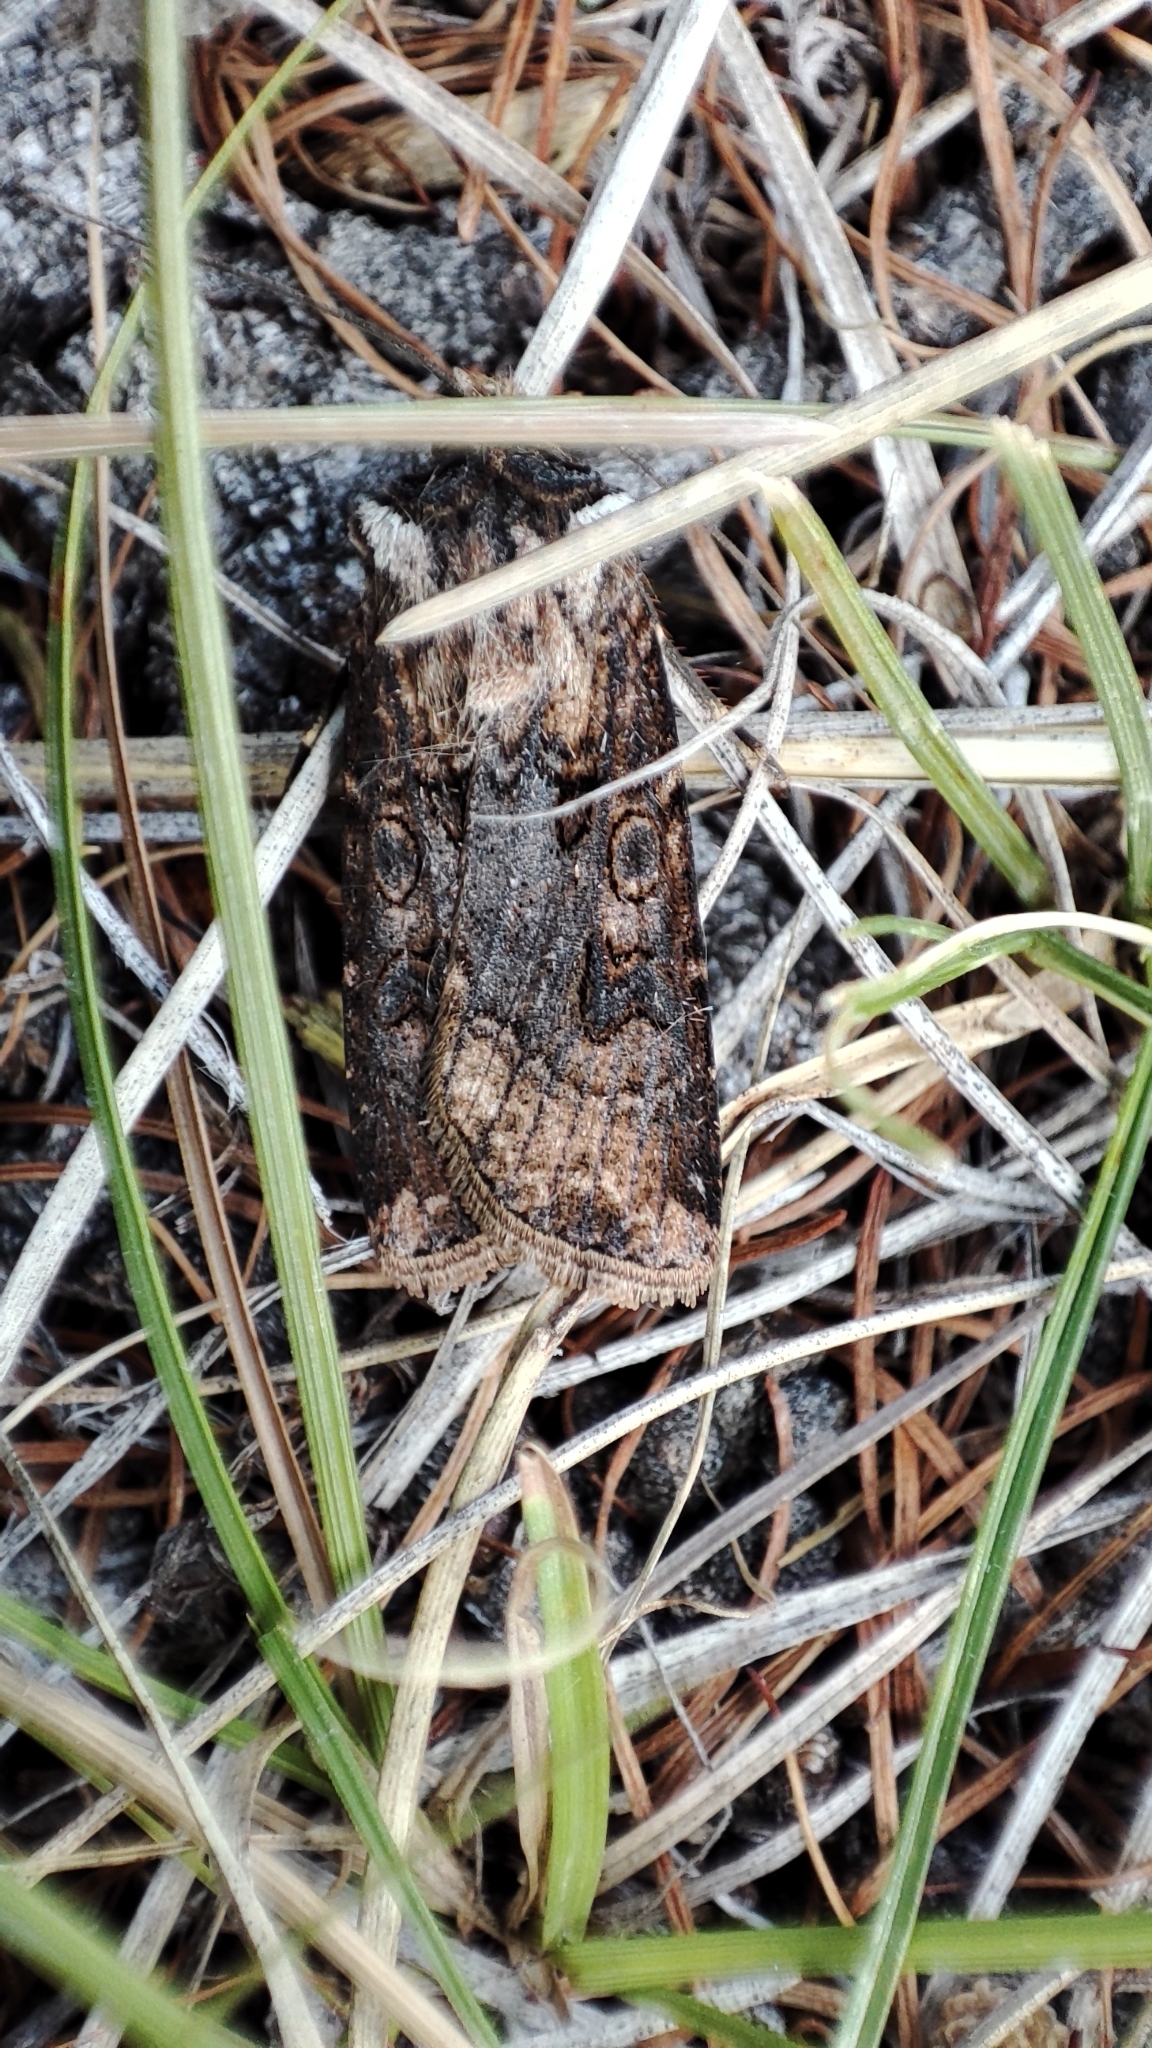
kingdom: Animalia
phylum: Arthropoda
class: Insecta
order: Lepidoptera
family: Noctuidae
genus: Agrotis
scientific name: Agrotis clavis
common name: Heart and club
